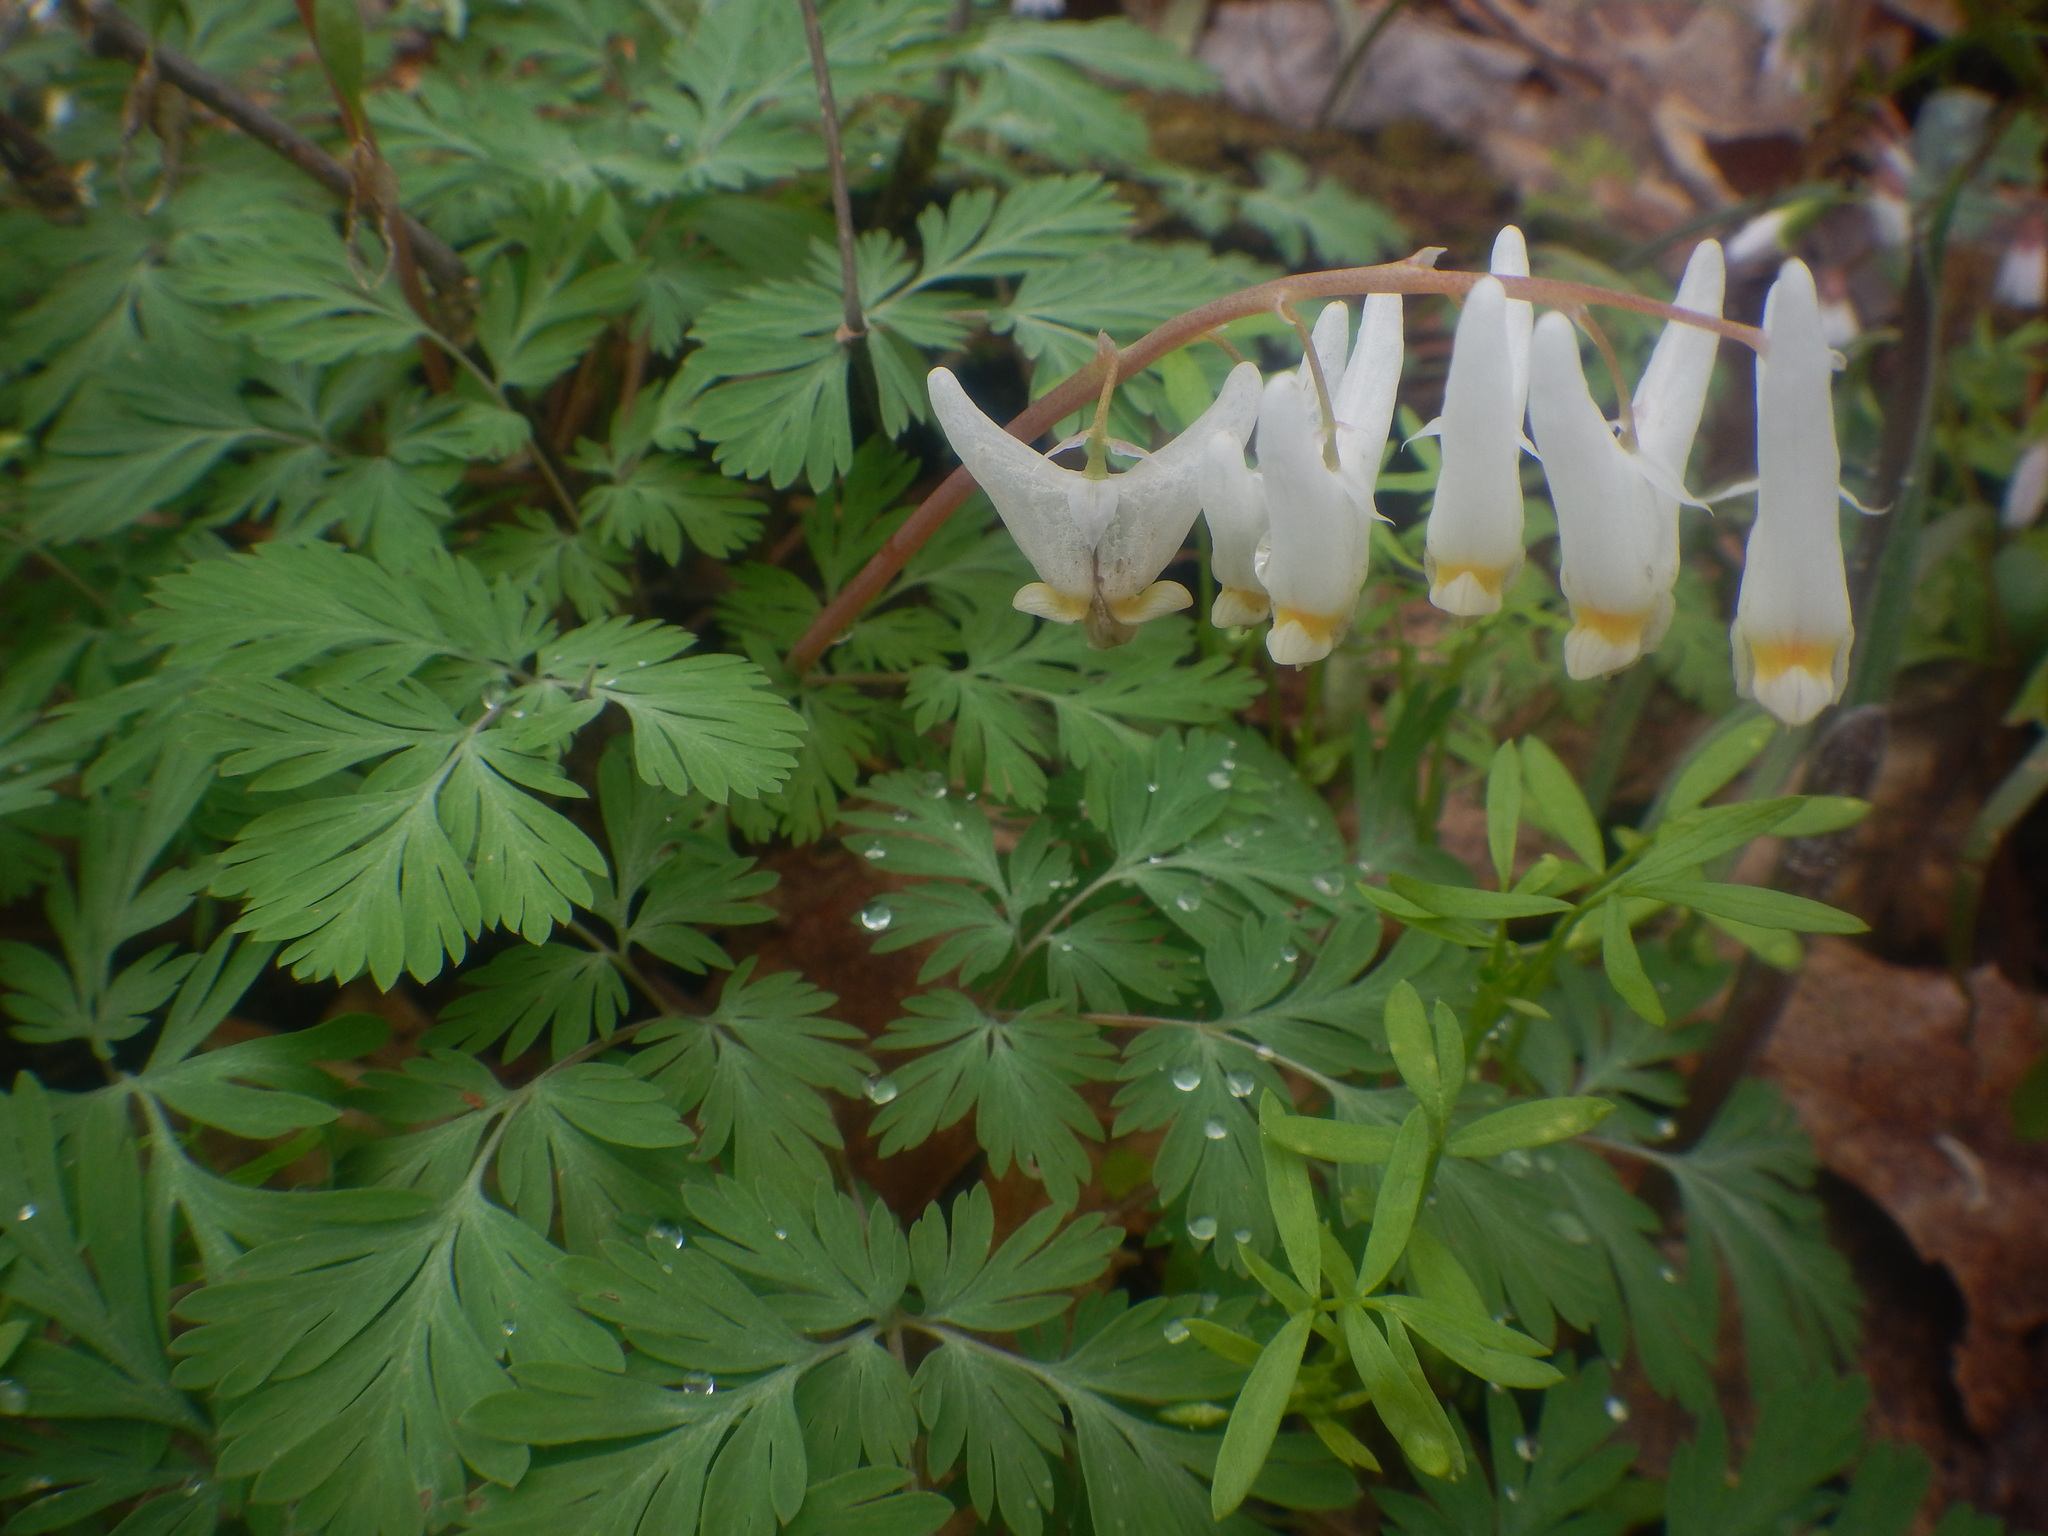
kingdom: Plantae
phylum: Tracheophyta
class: Magnoliopsida
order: Ranunculales
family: Papaveraceae
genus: Dicentra
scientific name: Dicentra cucullaria
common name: Dutchman's breeches
